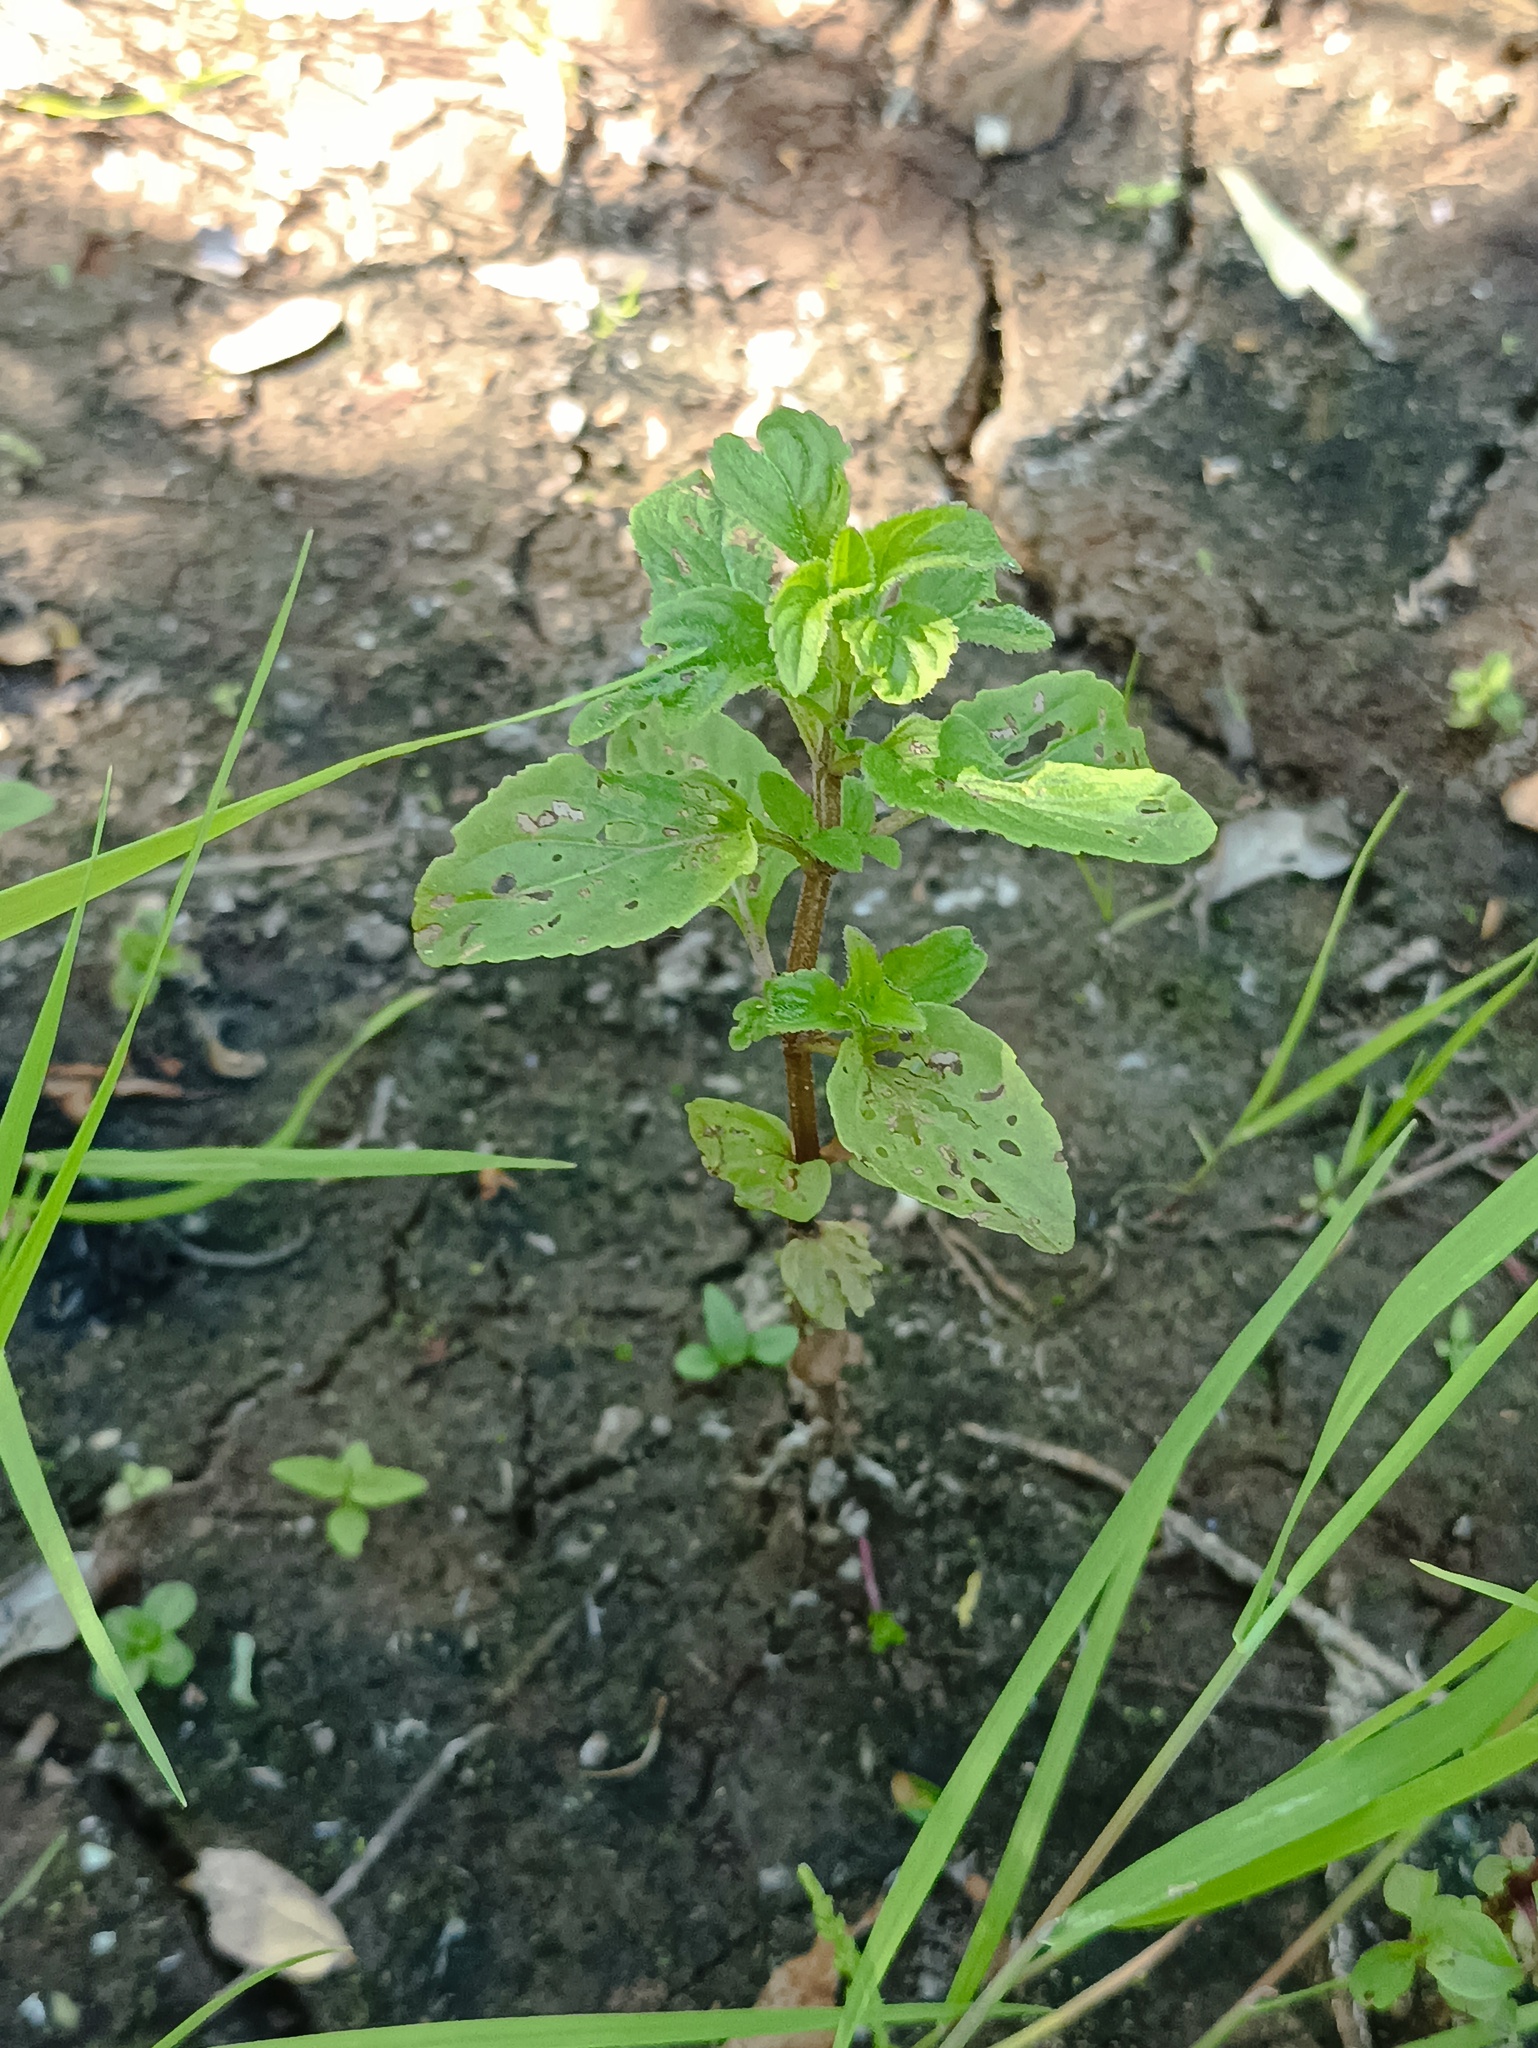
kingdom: Plantae
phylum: Tracheophyta
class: Magnoliopsida
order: Lamiales
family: Lamiaceae
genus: Mentha
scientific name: Mentha arvensis
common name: Corn mint
